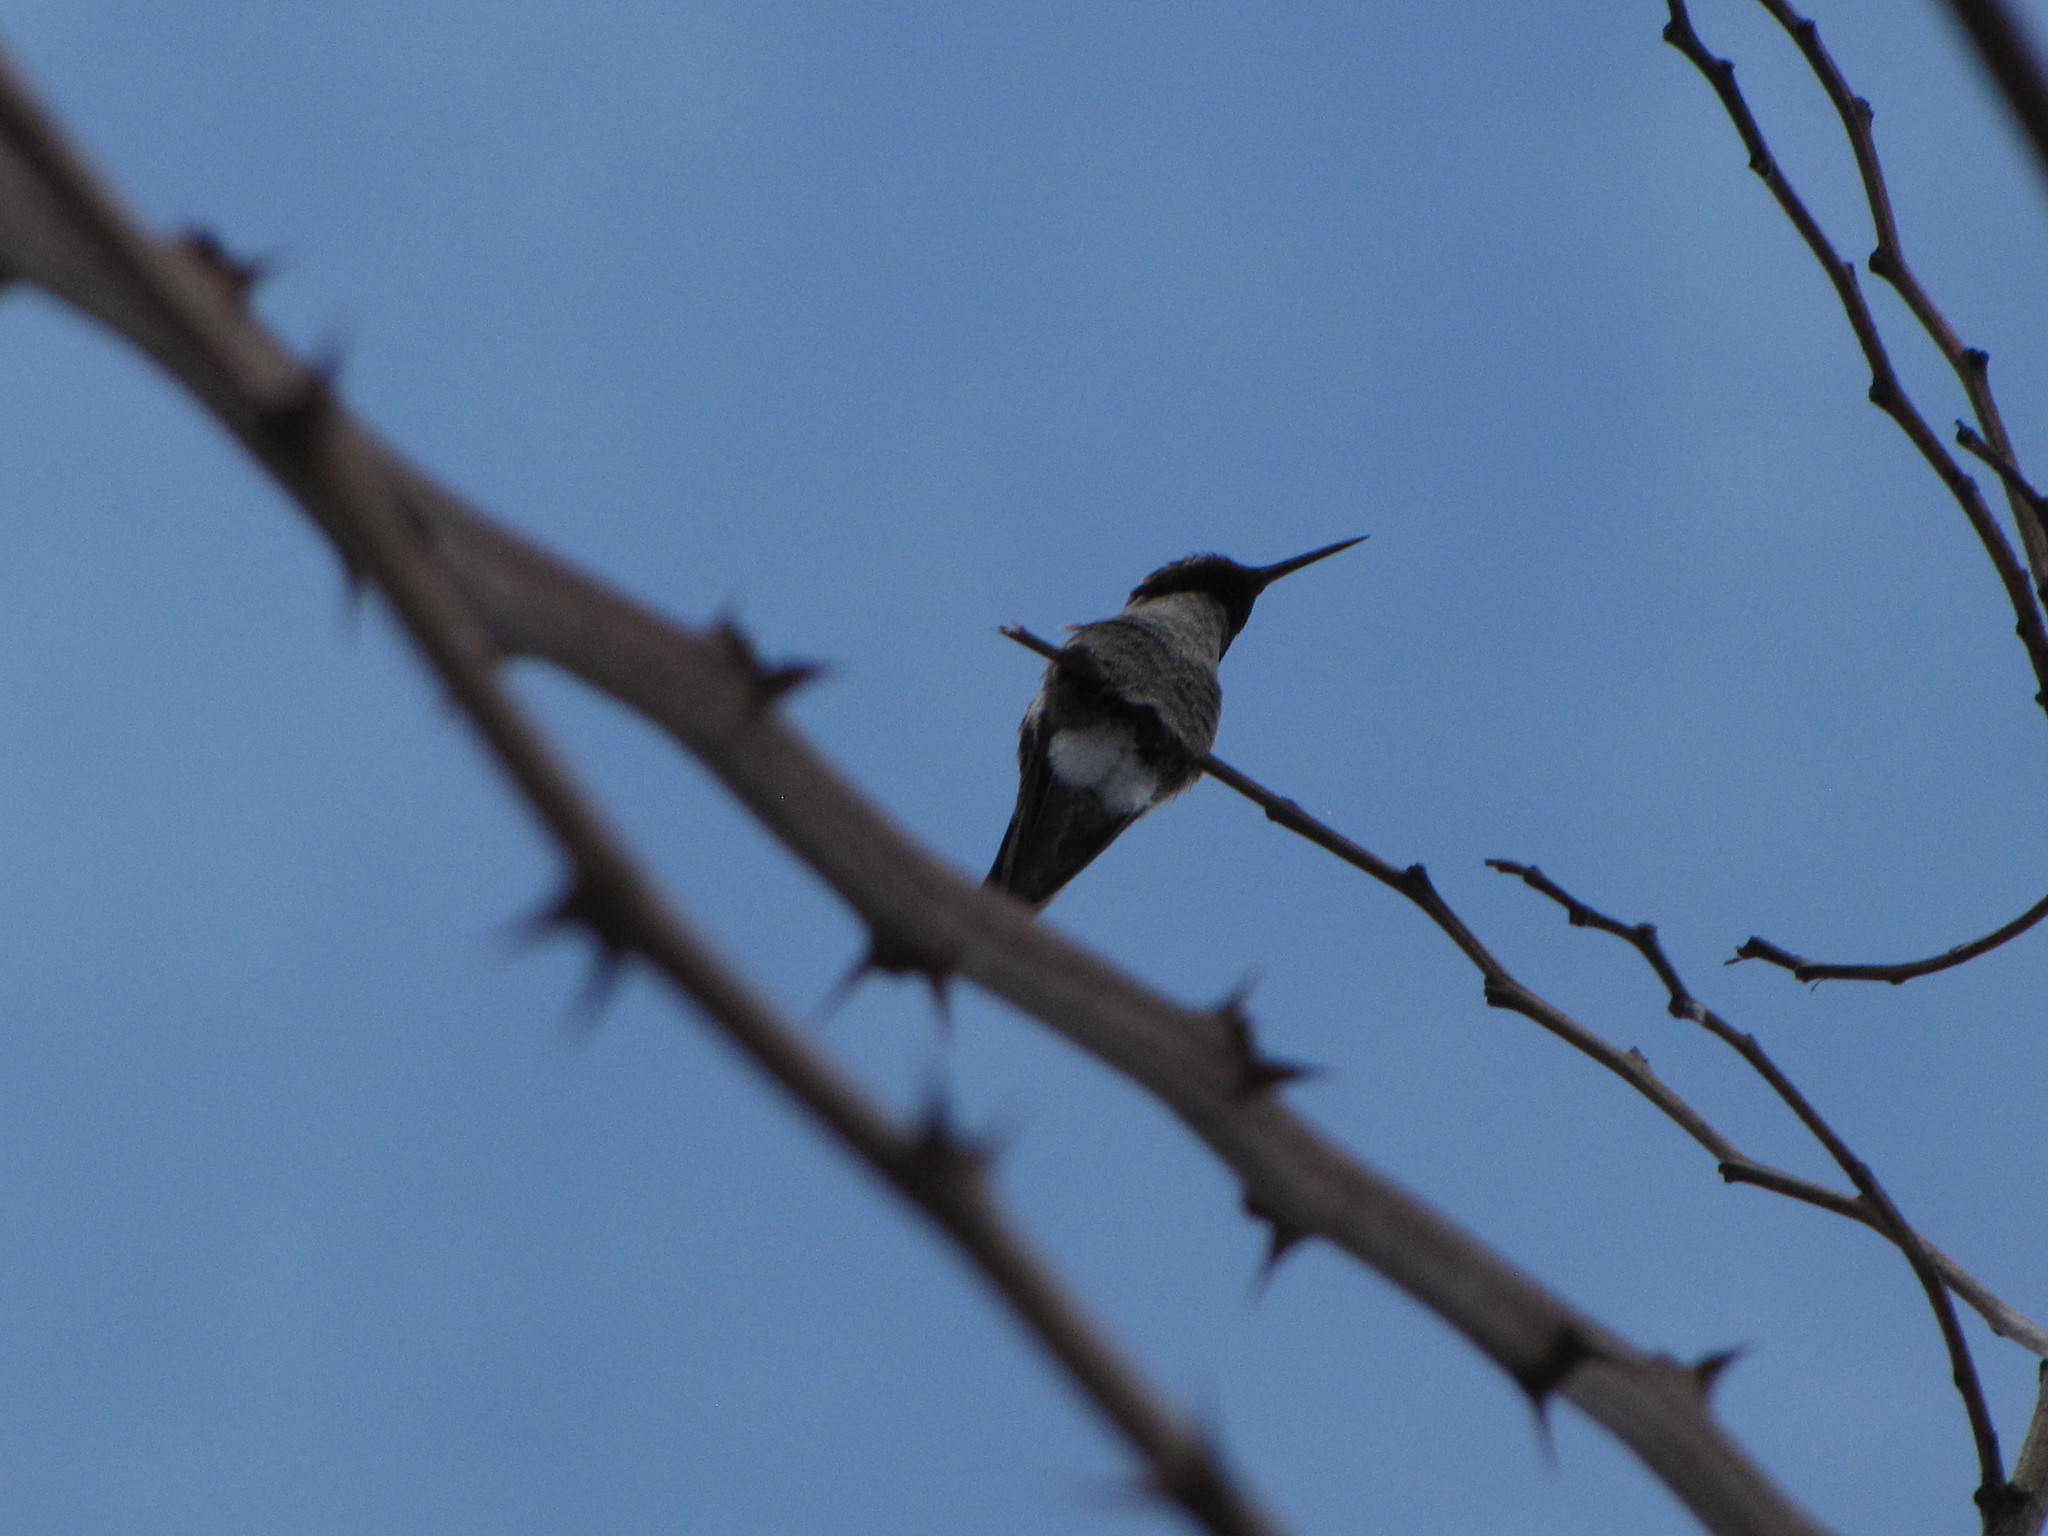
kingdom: Animalia
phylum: Chordata
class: Aves
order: Apodiformes
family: Trochilidae
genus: Calypte
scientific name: Calypte anna
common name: Anna's hummingbird
